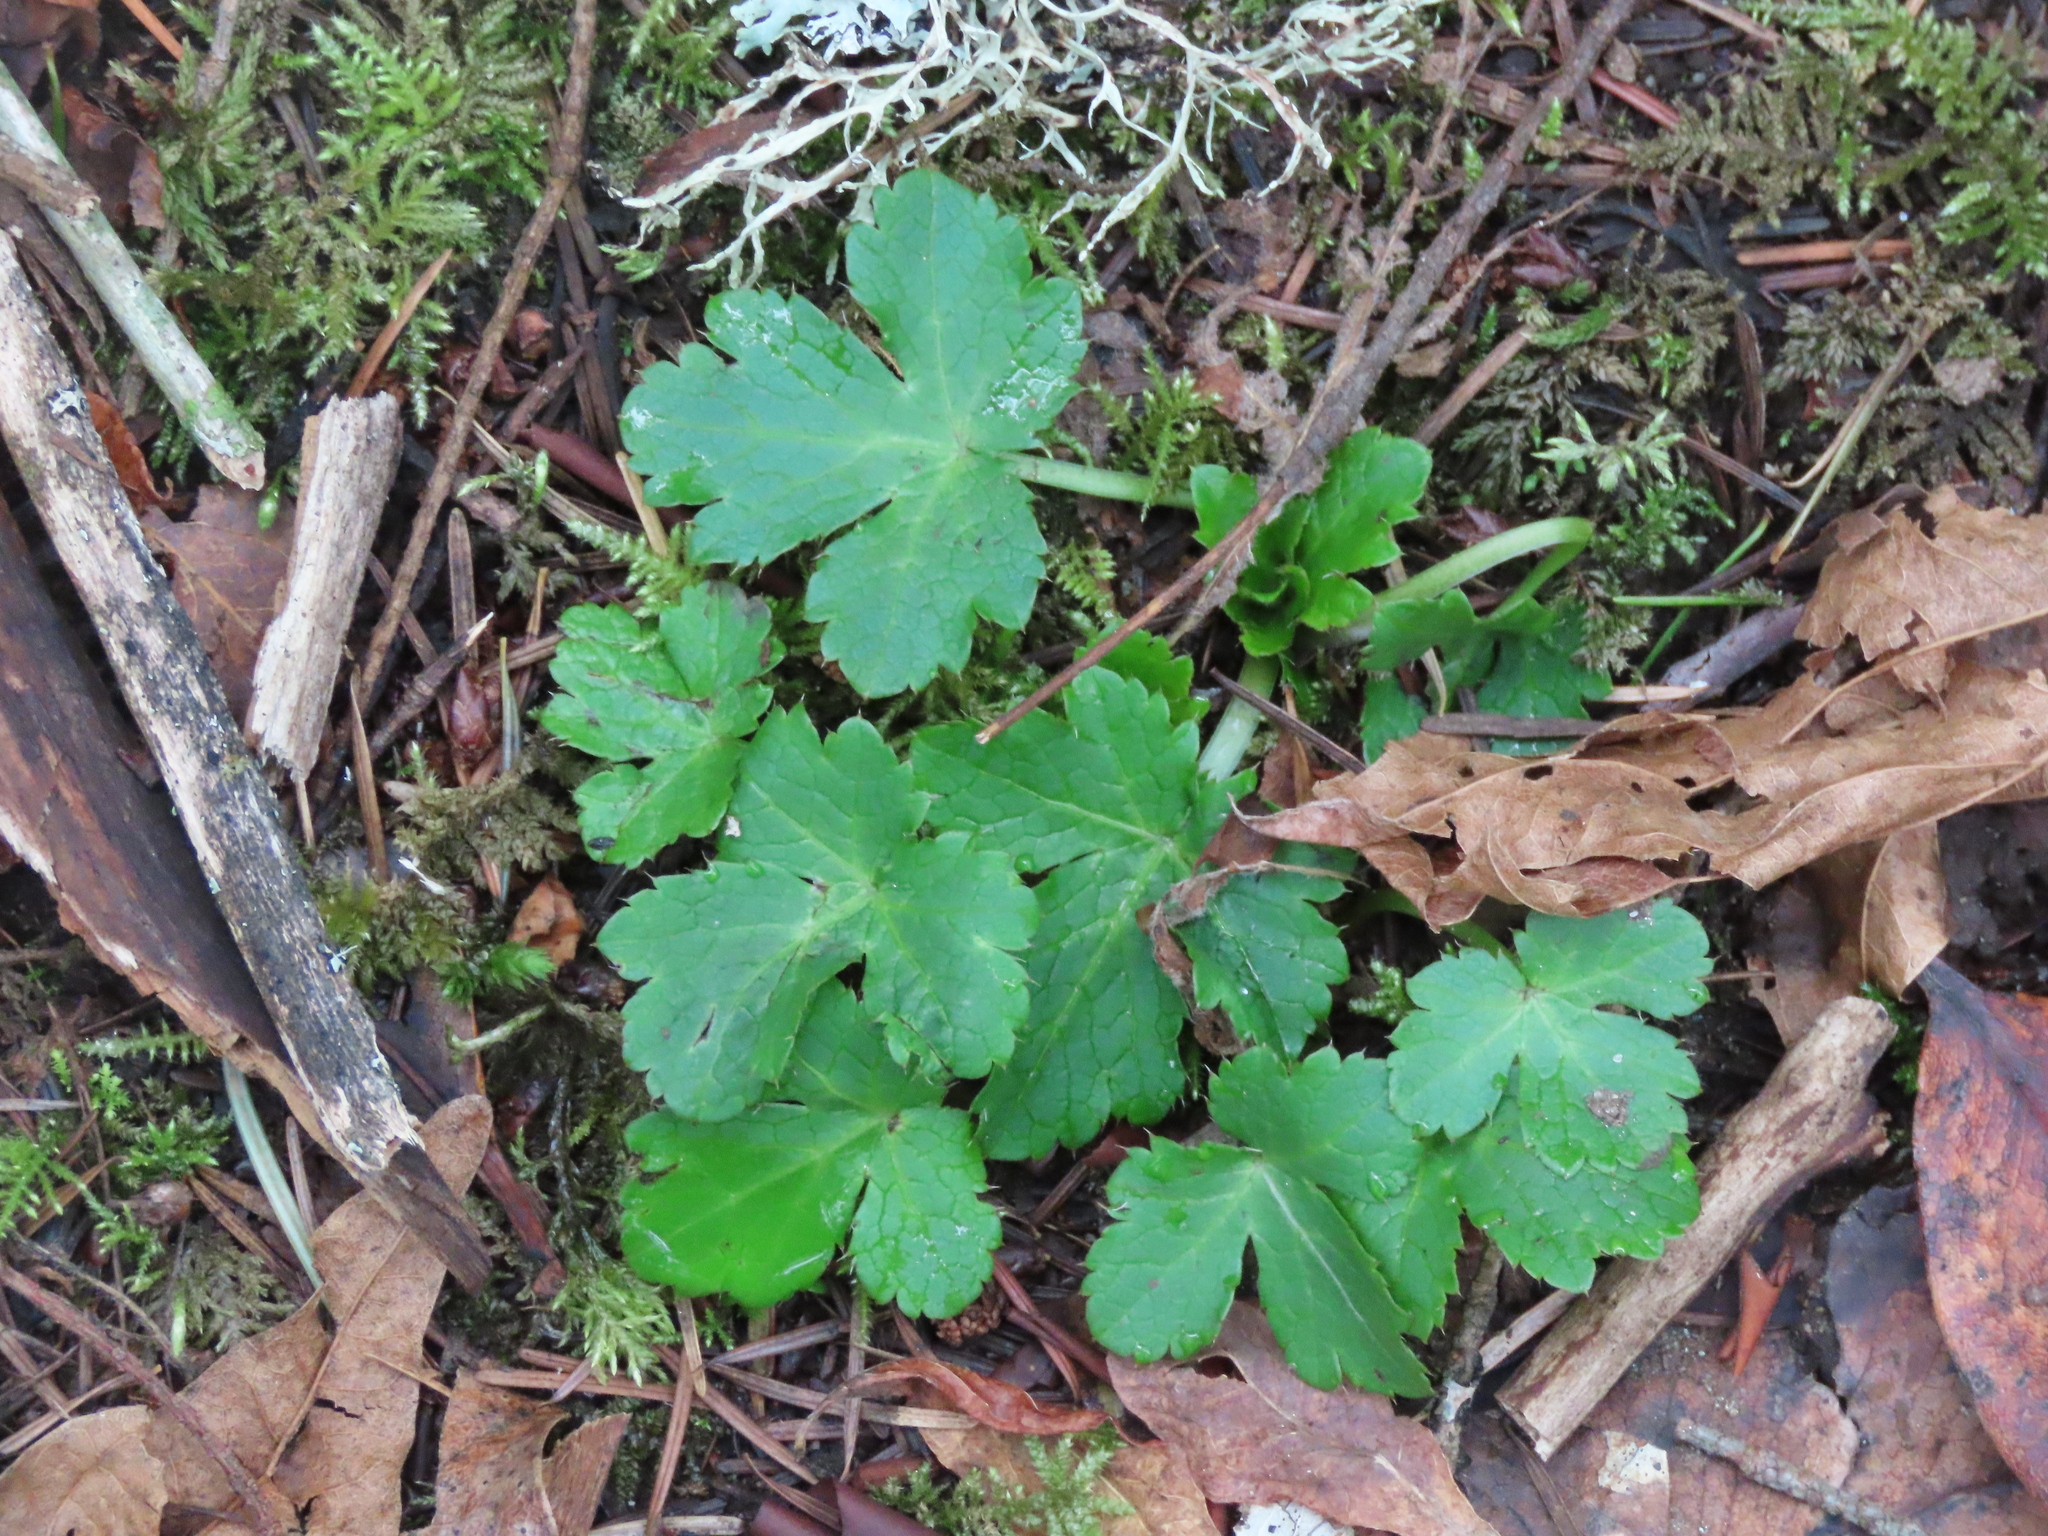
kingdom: Plantae
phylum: Tracheophyta
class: Magnoliopsida
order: Apiales
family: Apiaceae
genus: Sanicula
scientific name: Sanicula crassicaulis
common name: Western snakeroot
